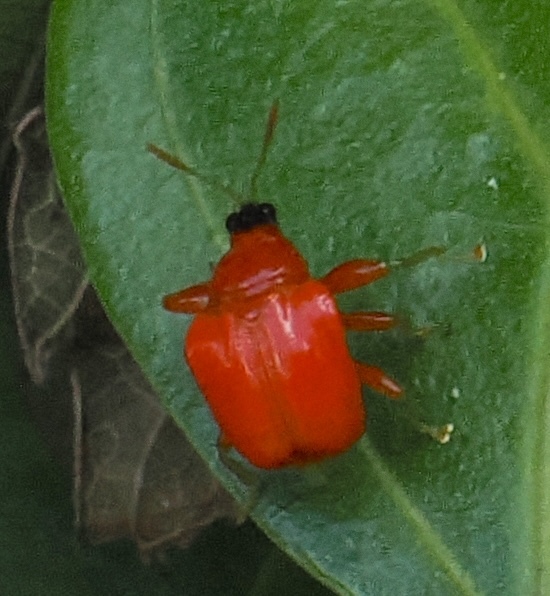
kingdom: Animalia
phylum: Arthropoda
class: Insecta
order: Coleoptera
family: Attelabidae
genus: Clinolabus
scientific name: Clinolabus buqueti
